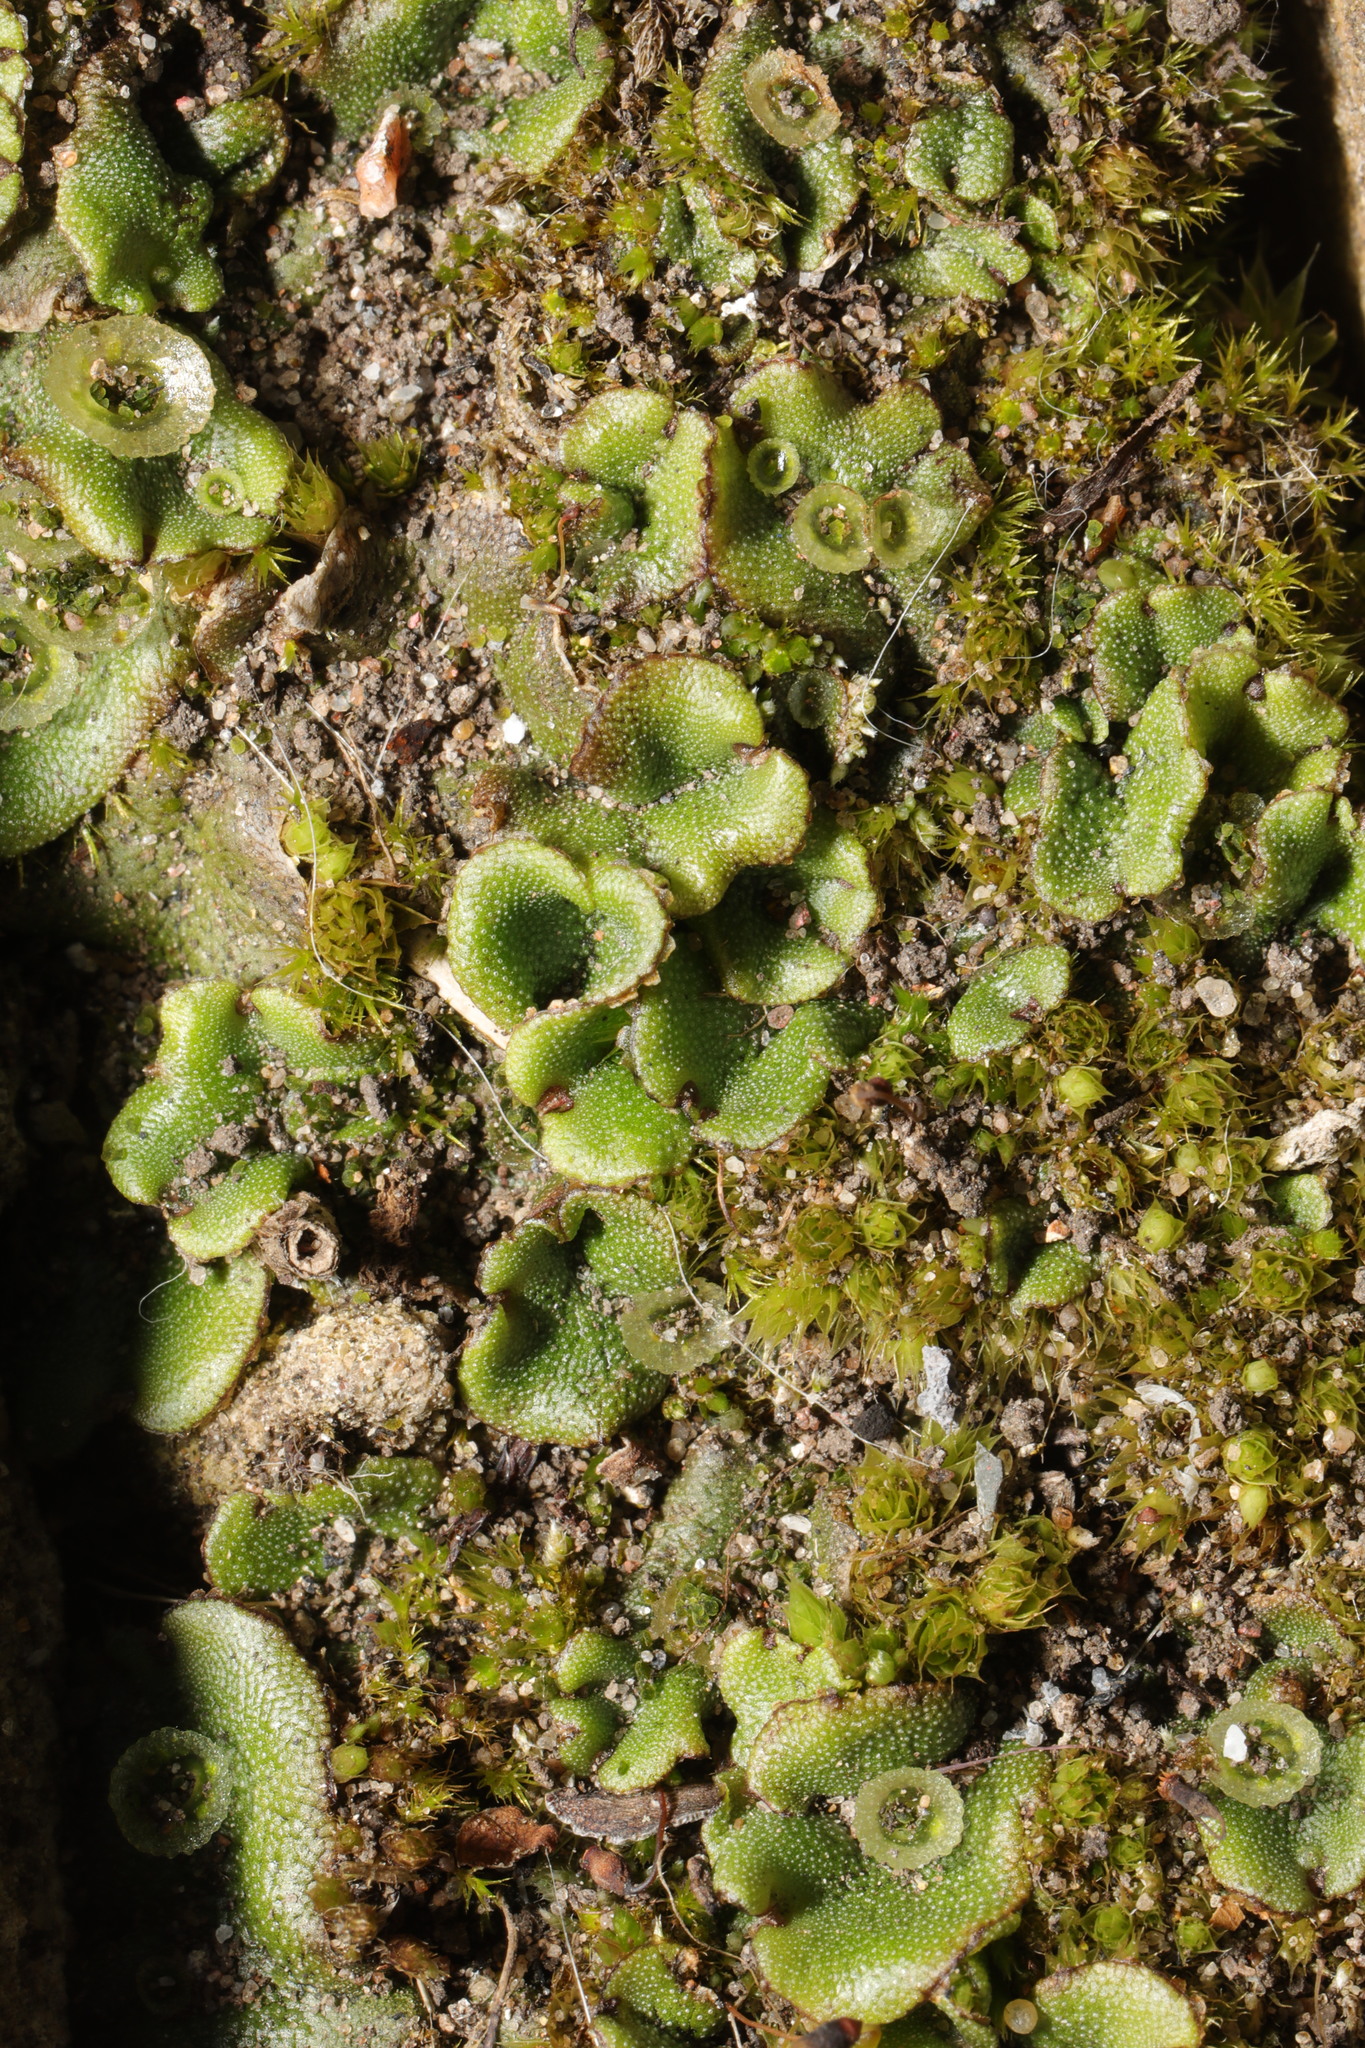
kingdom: Plantae
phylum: Marchantiophyta
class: Marchantiopsida
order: Marchantiales
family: Marchantiaceae
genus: Marchantia
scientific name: Marchantia polymorpha
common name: Common liverwort
